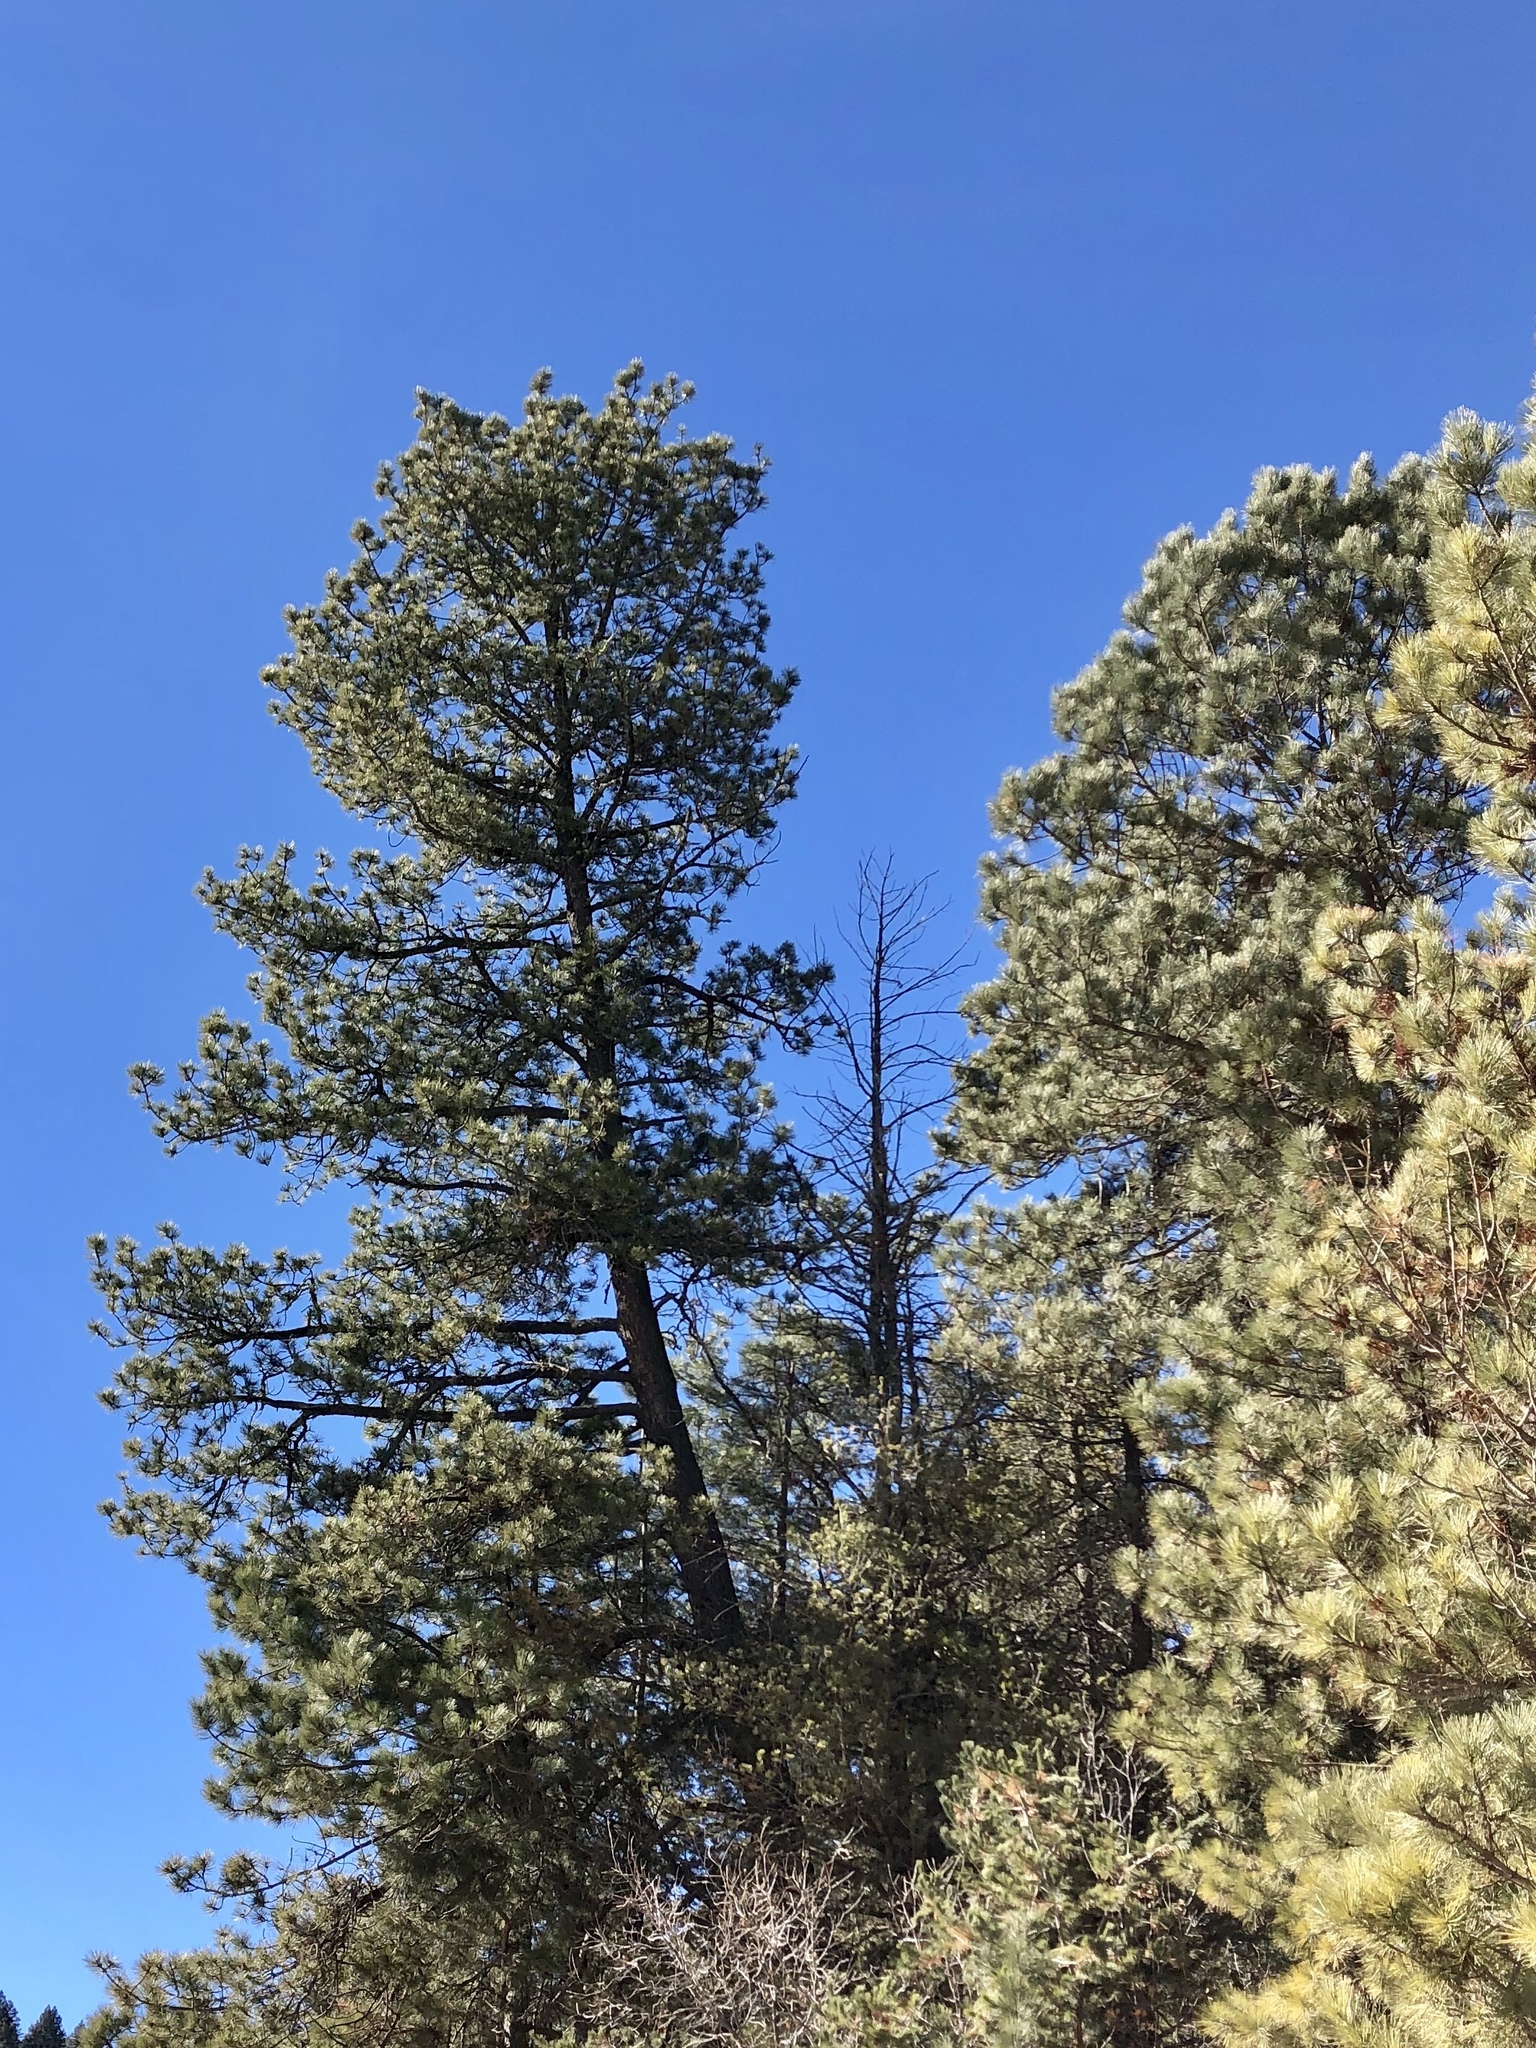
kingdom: Plantae
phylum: Tracheophyta
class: Pinopsida
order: Pinales
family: Pinaceae
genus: Pinus
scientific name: Pinus ponderosa
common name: Western yellow-pine
